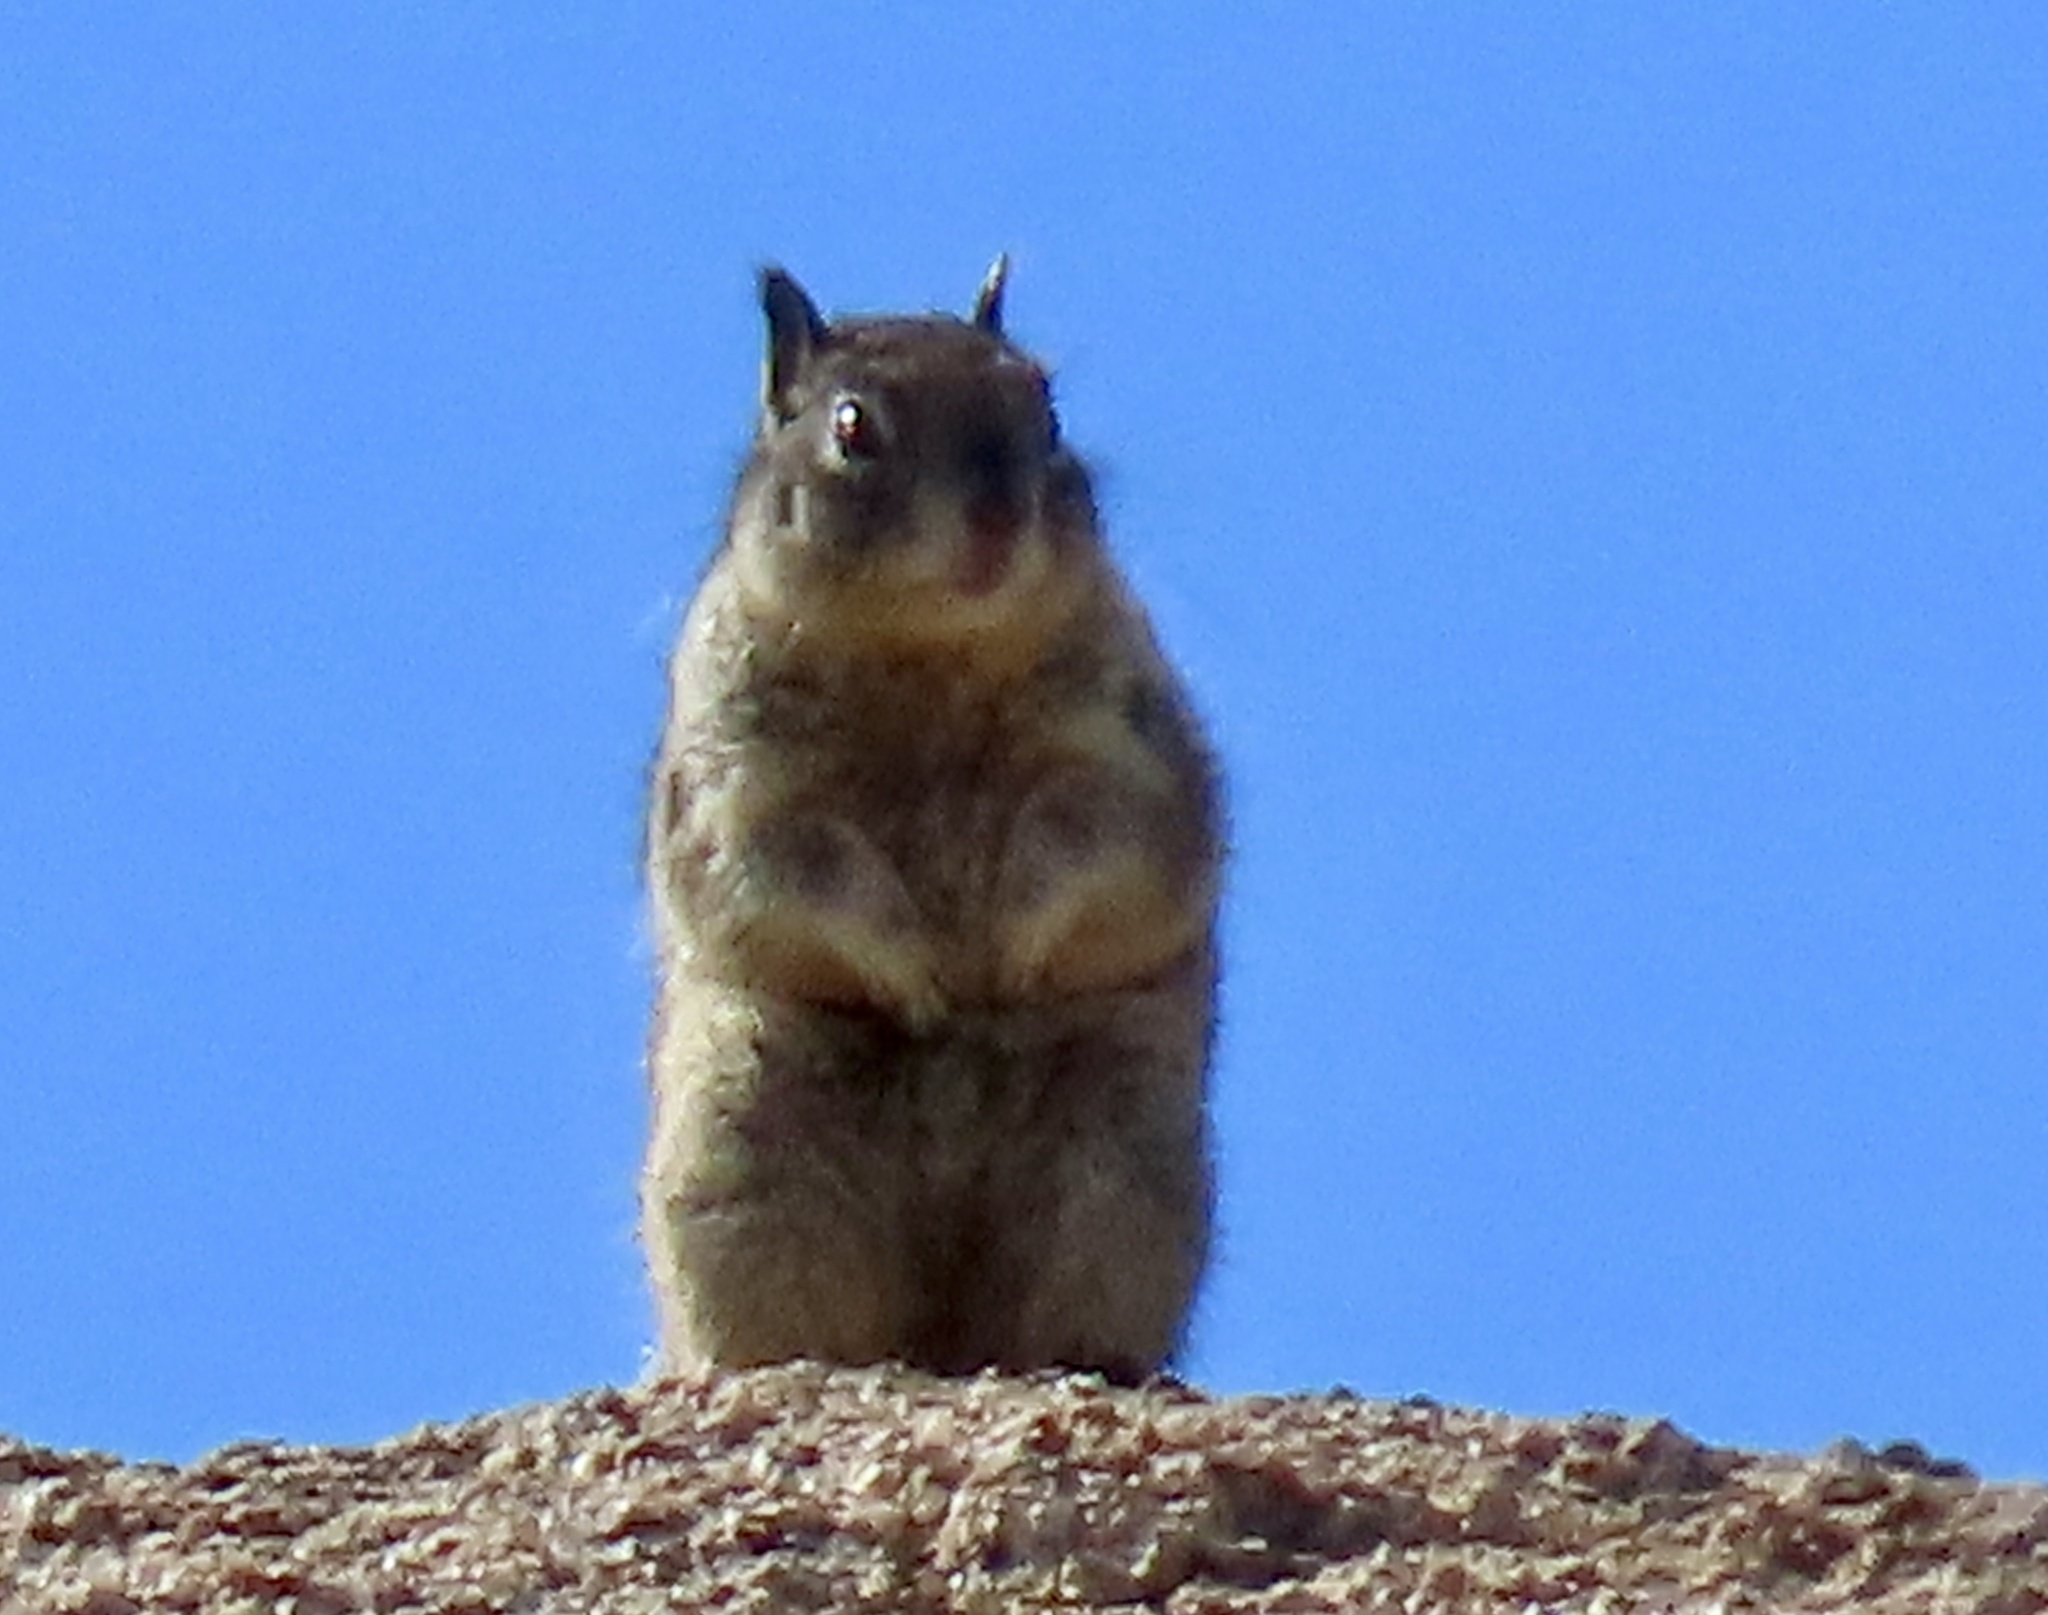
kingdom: Animalia
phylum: Chordata
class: Mammalia
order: Rodentia
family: Sciuridae
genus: Otospermophilus
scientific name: Otospermophilus beecheyi
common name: California ground squirrel
